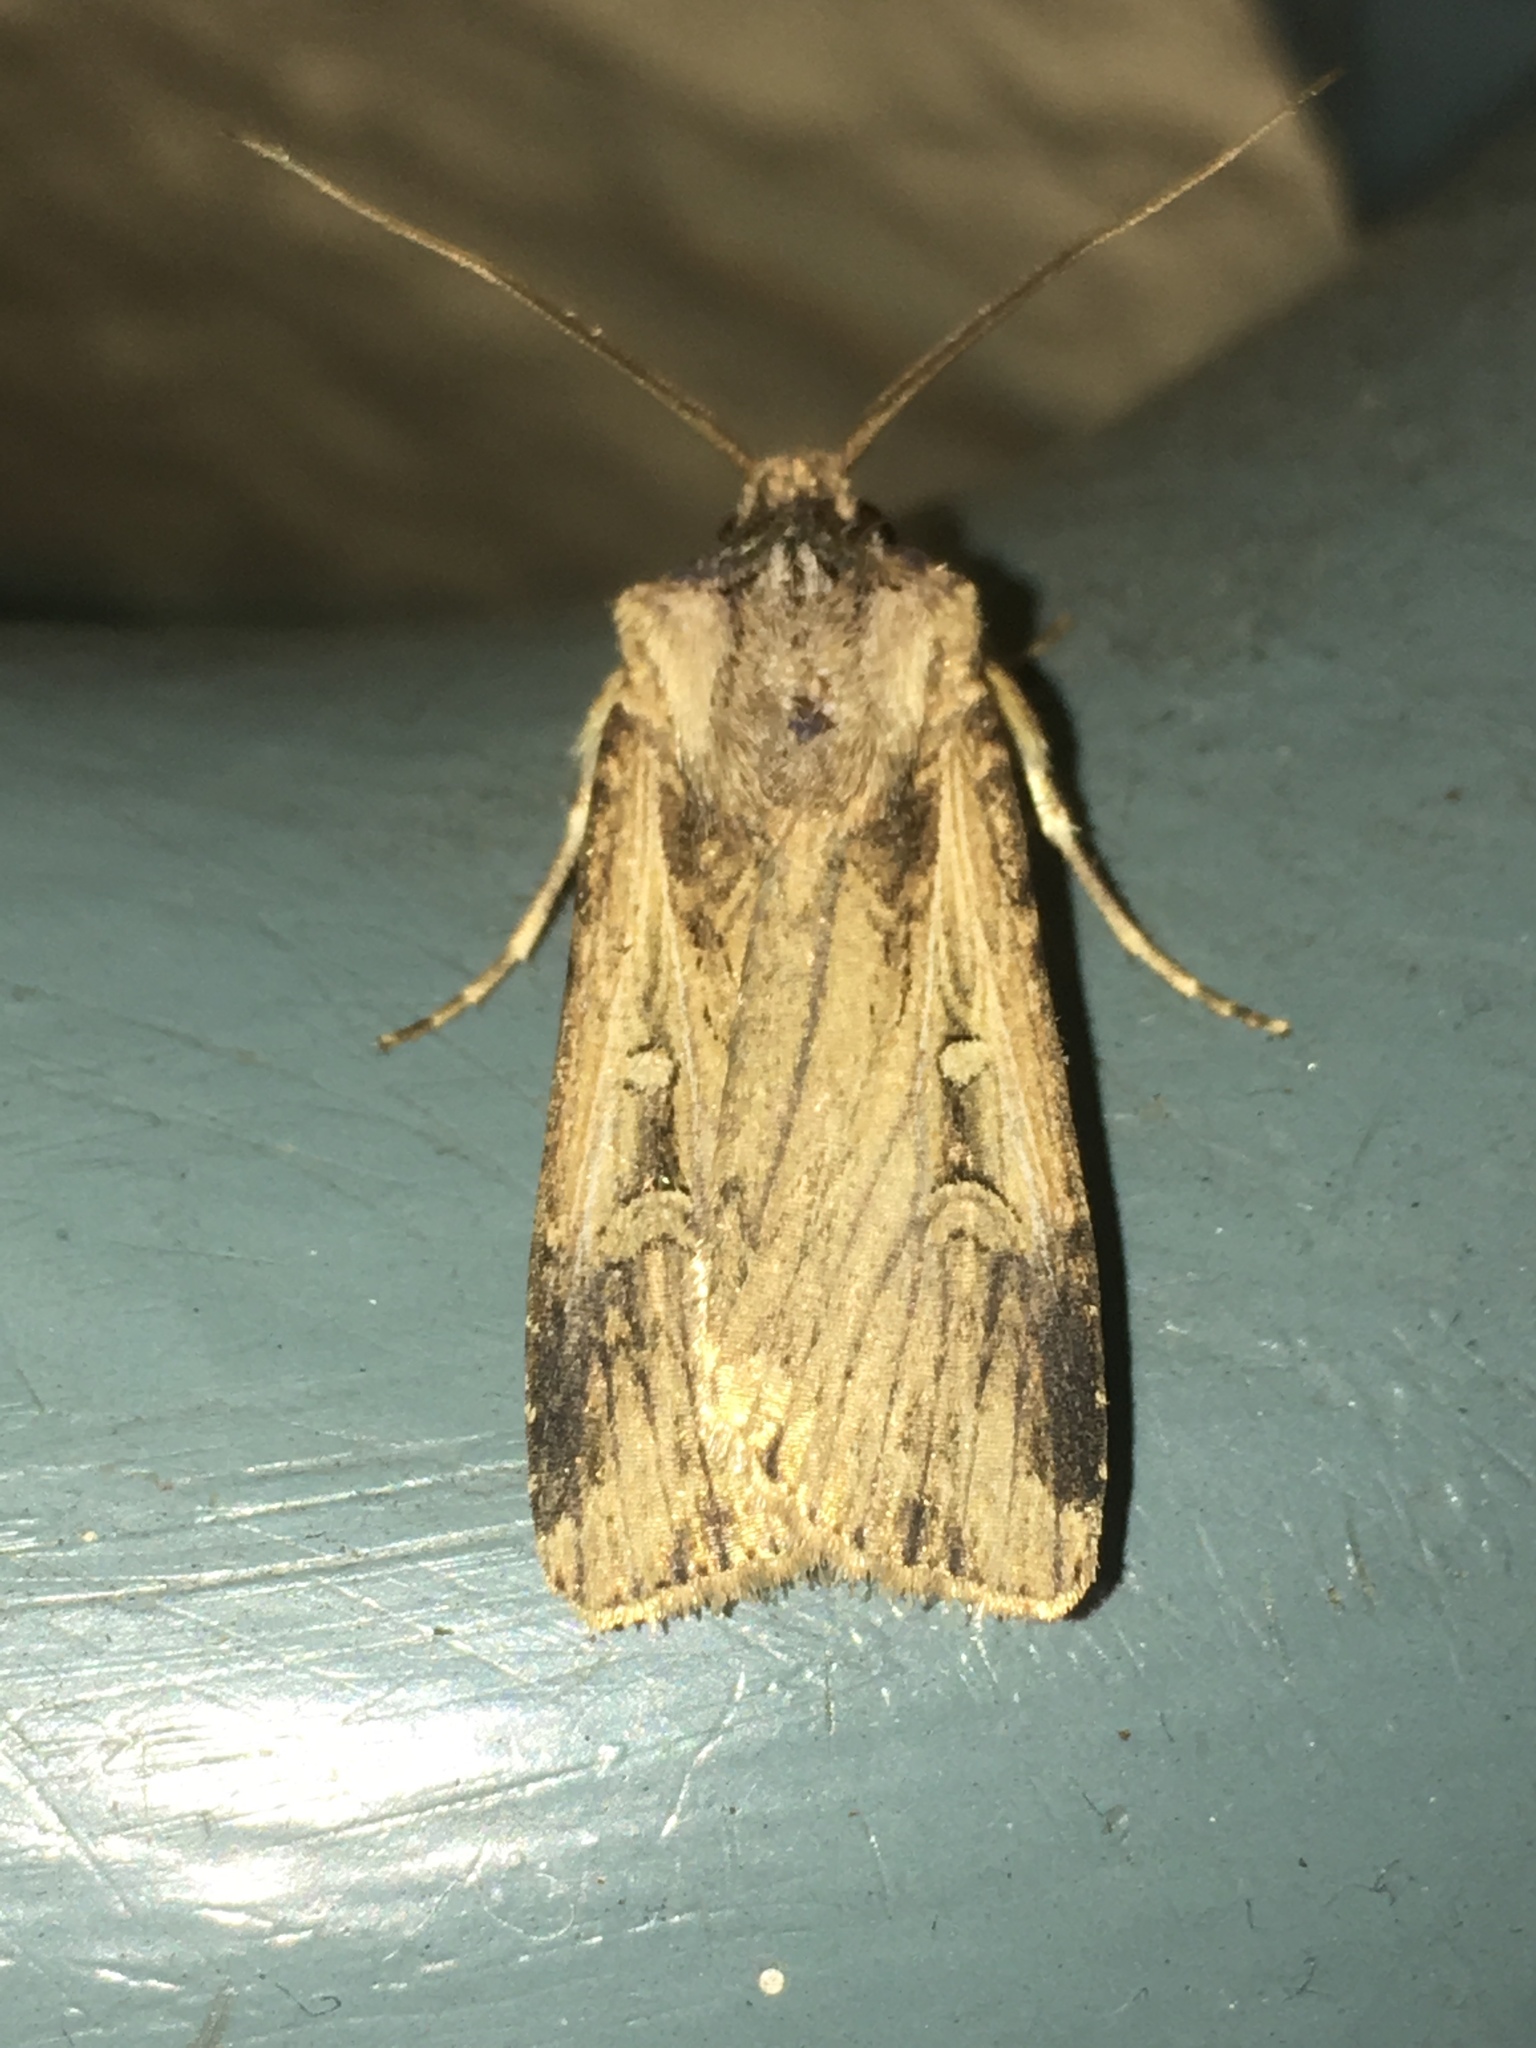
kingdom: Animalia
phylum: Arthropoda
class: Insecta
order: Lepidoptera
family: Noctuidae
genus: Feltia
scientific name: Feltia subterranea
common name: Granulate cutworm
